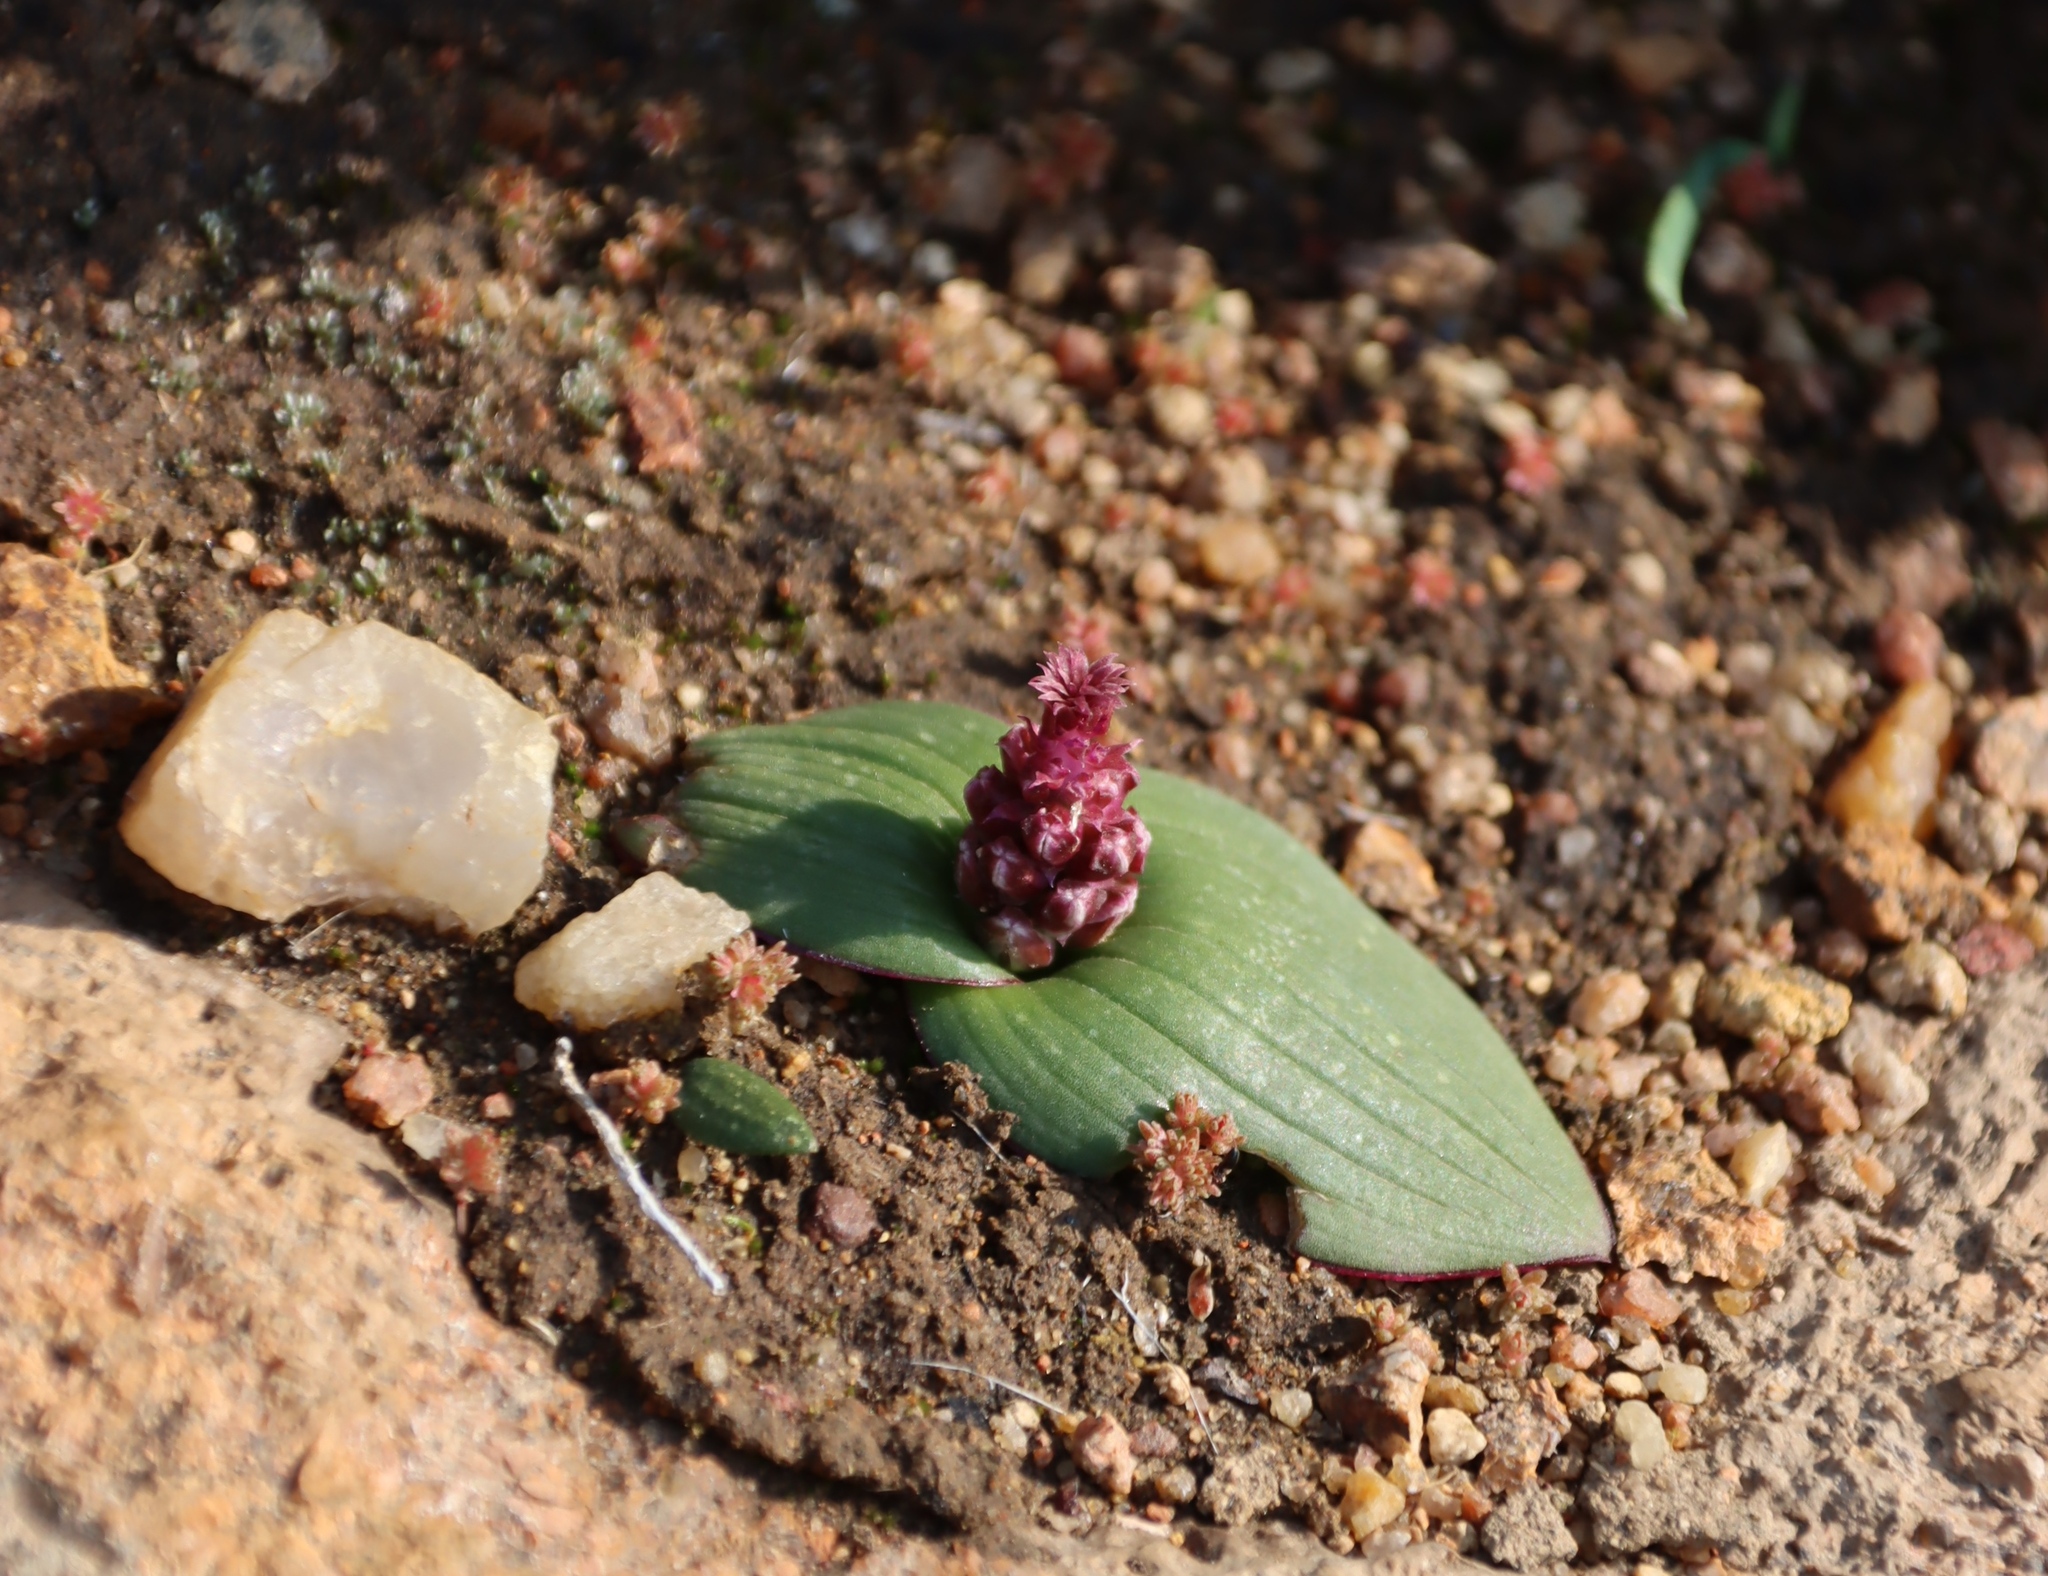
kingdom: Plantae
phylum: Tracheophyta
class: Liliopsida
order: Asparagales
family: Asparagaceae
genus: Lachenalia
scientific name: Lachenalia carnosa
